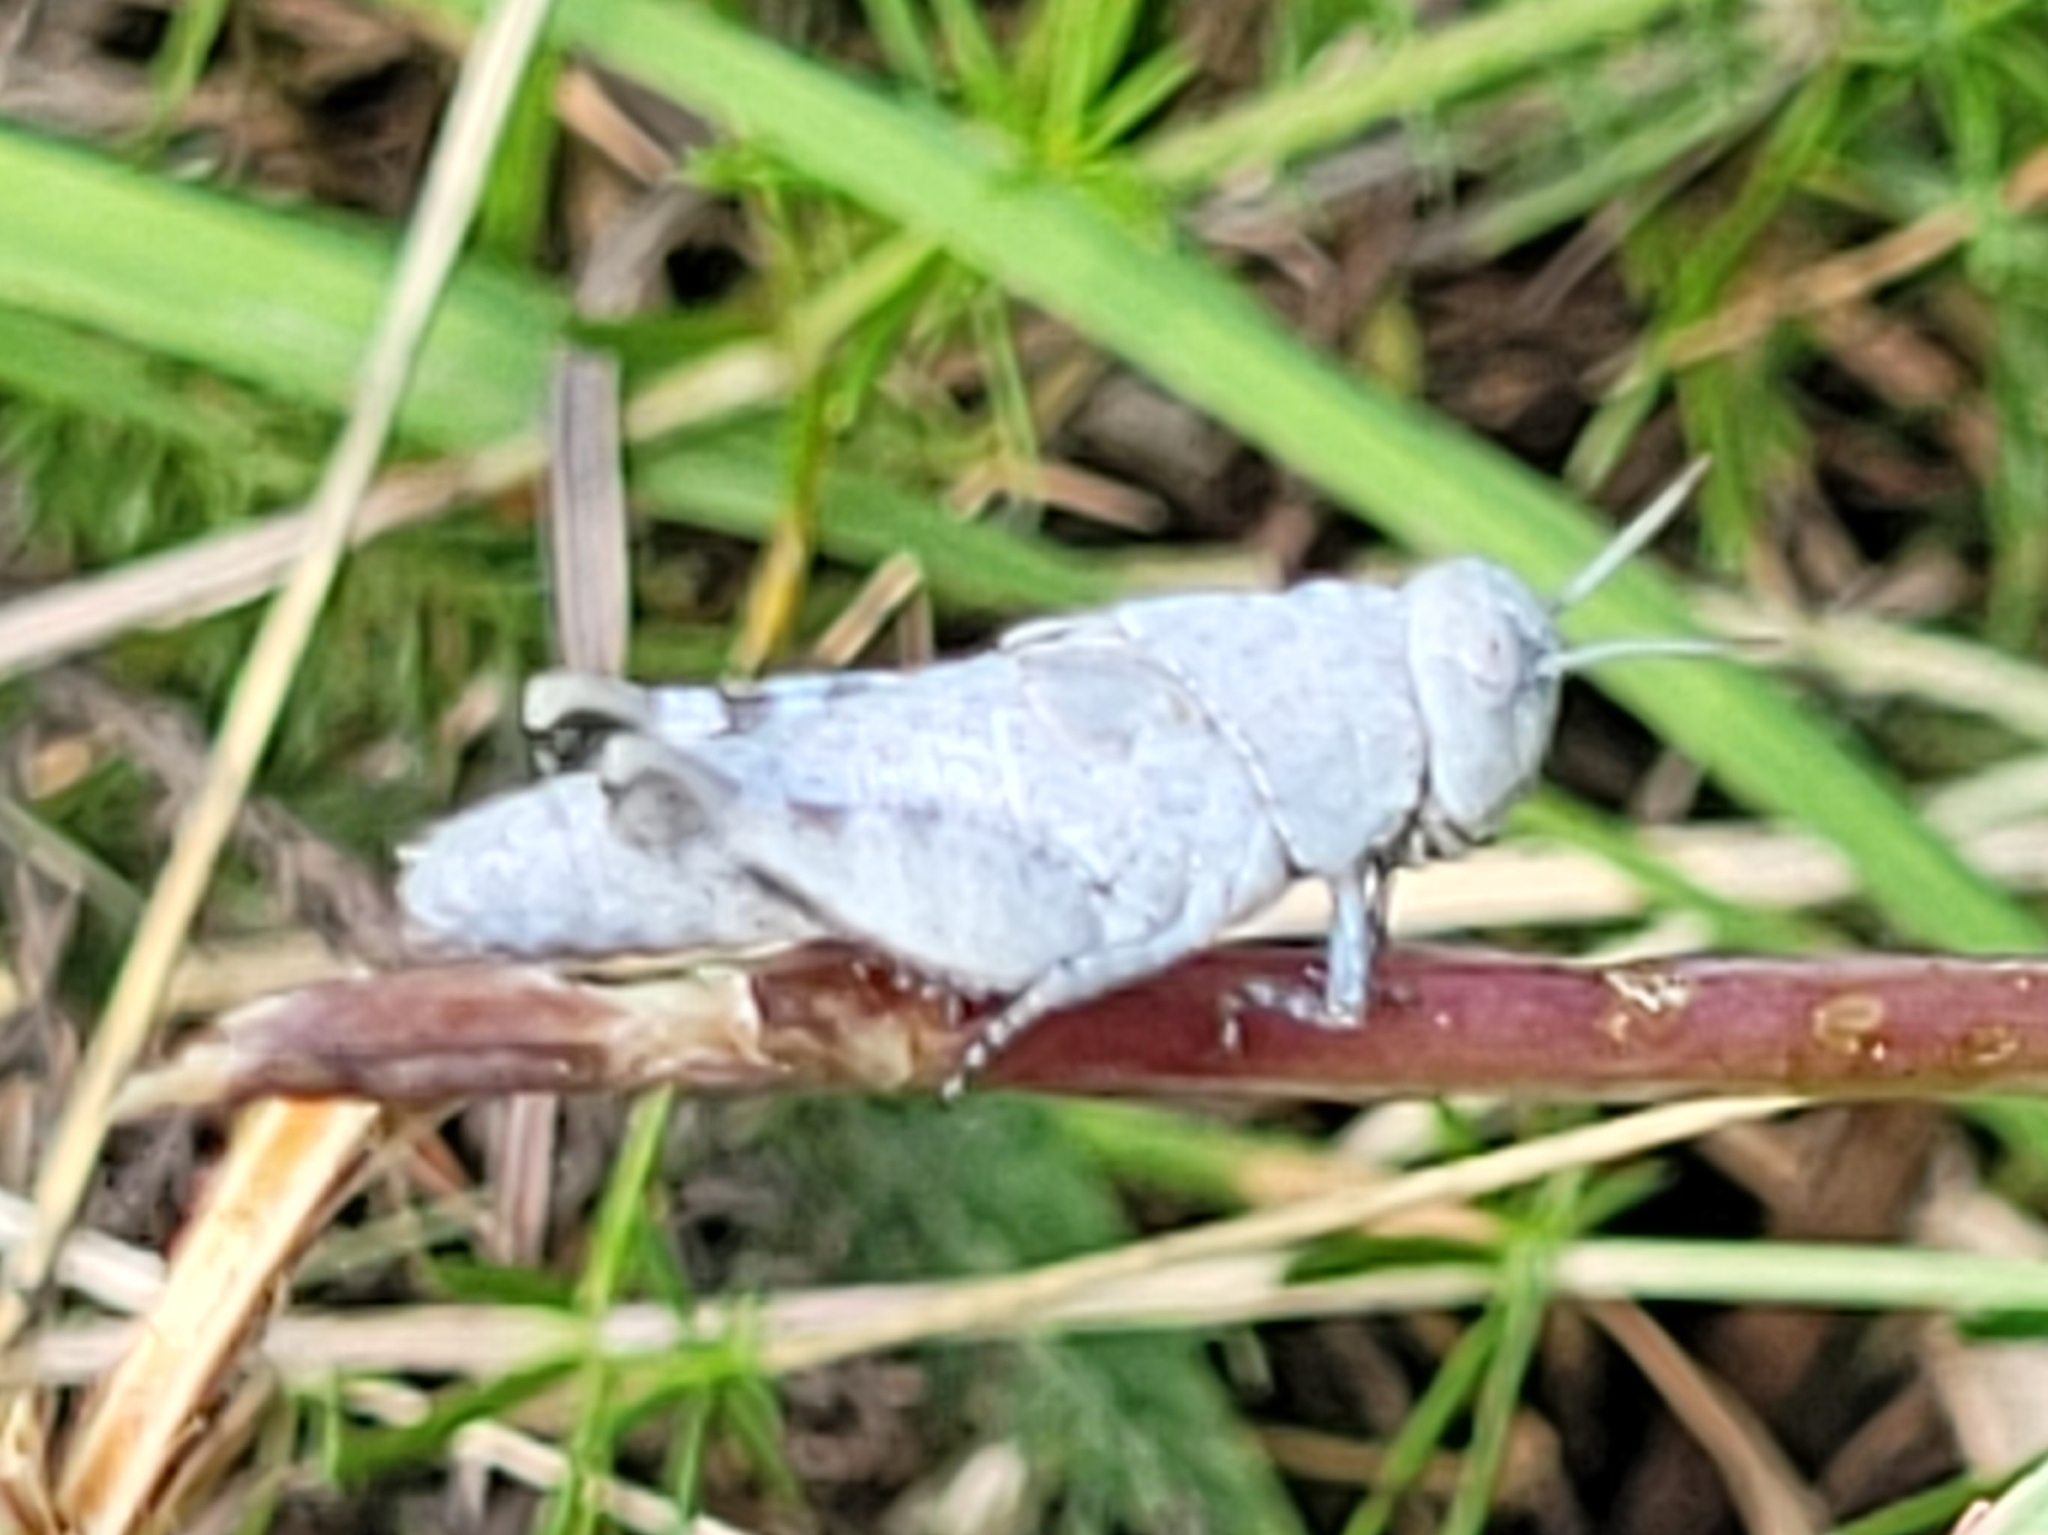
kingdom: Animalia
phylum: Arthropoda
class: Insecta
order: Orthoptera
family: Acrididae
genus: Oedipoda
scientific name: Oedipoda caerulescens
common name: Blue-winged grasshopper
